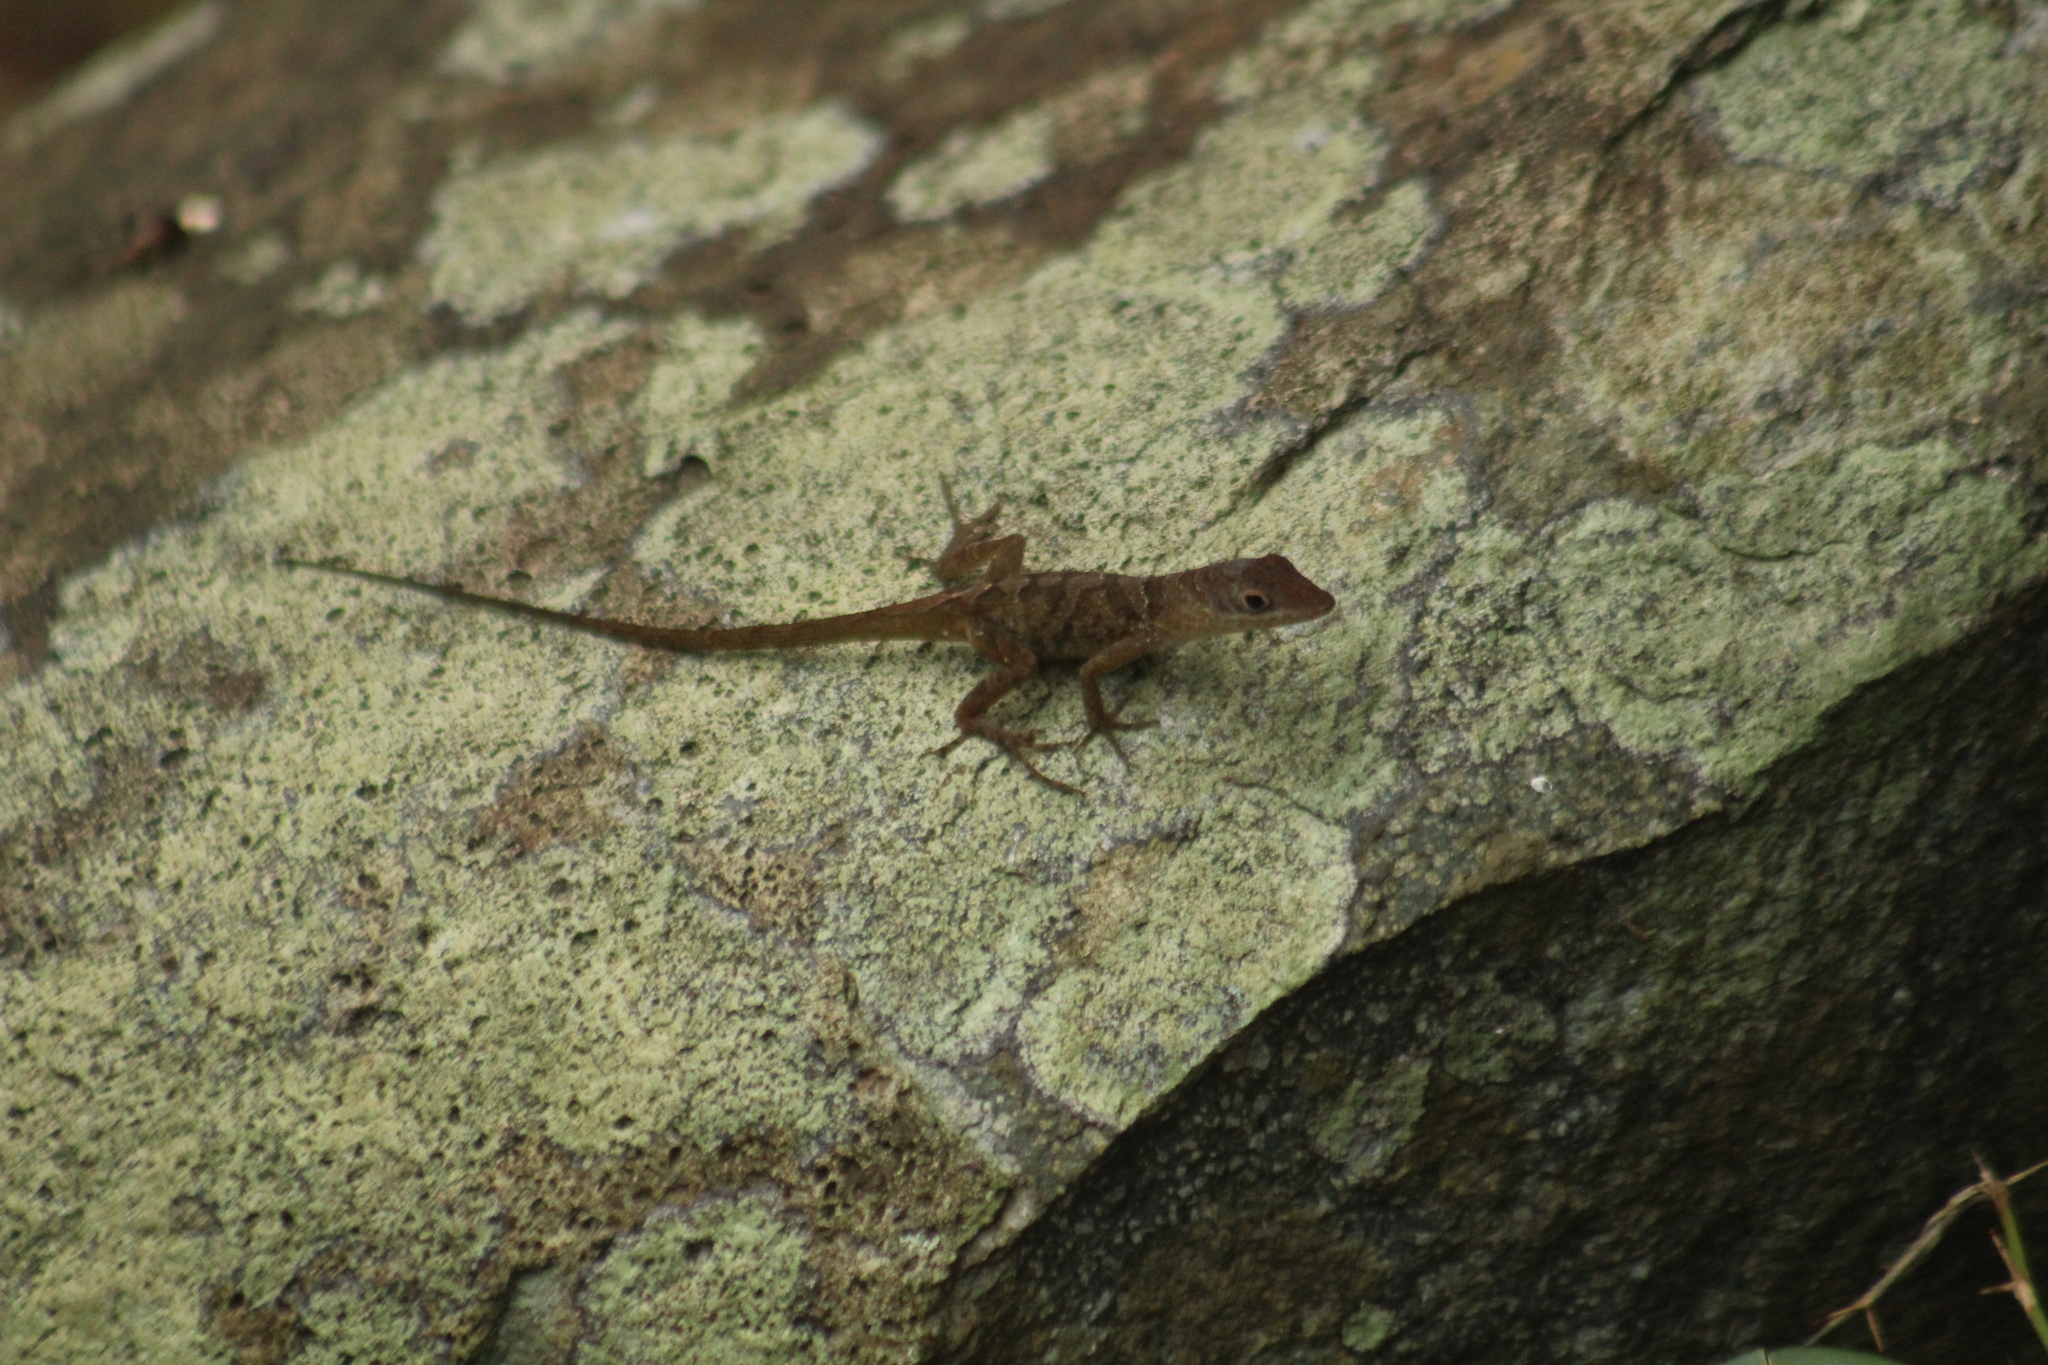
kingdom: Animalia
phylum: Chordata
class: Squamata
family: Dactyloidae
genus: Anolis
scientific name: Anolis pogus
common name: Anguilla bank bush anole
